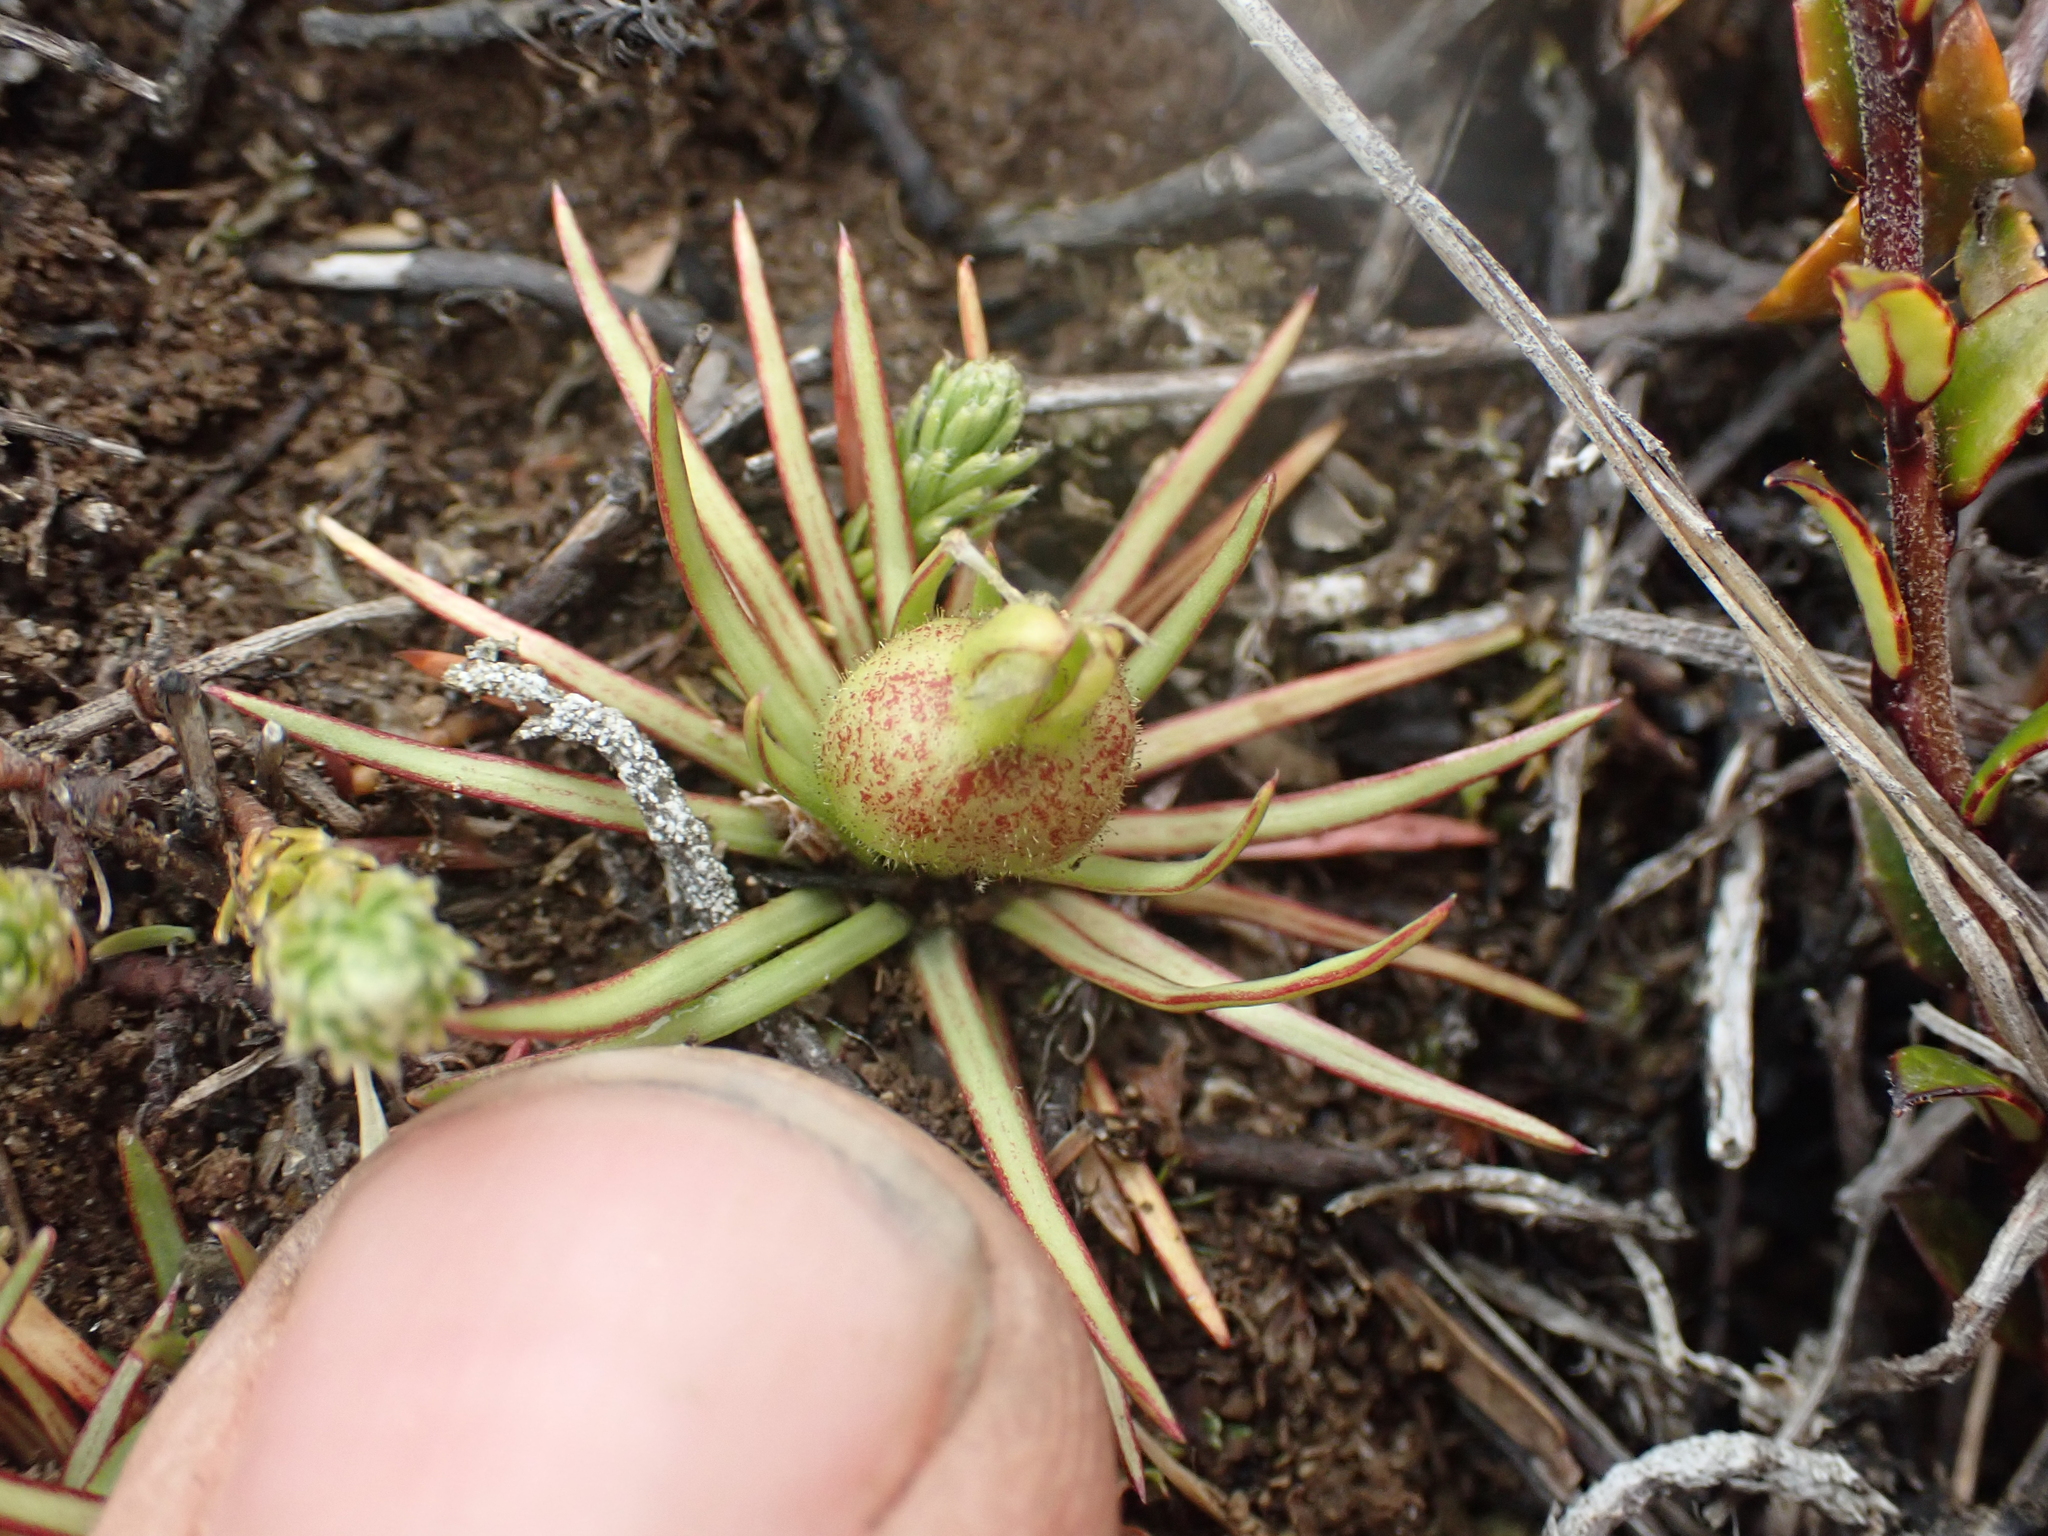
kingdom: Plantae
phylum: Tracheophyta
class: Magnoliopsida
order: Asterales
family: Stylidiaceae
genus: Oreostylidium
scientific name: Oreostylidium subulatum
